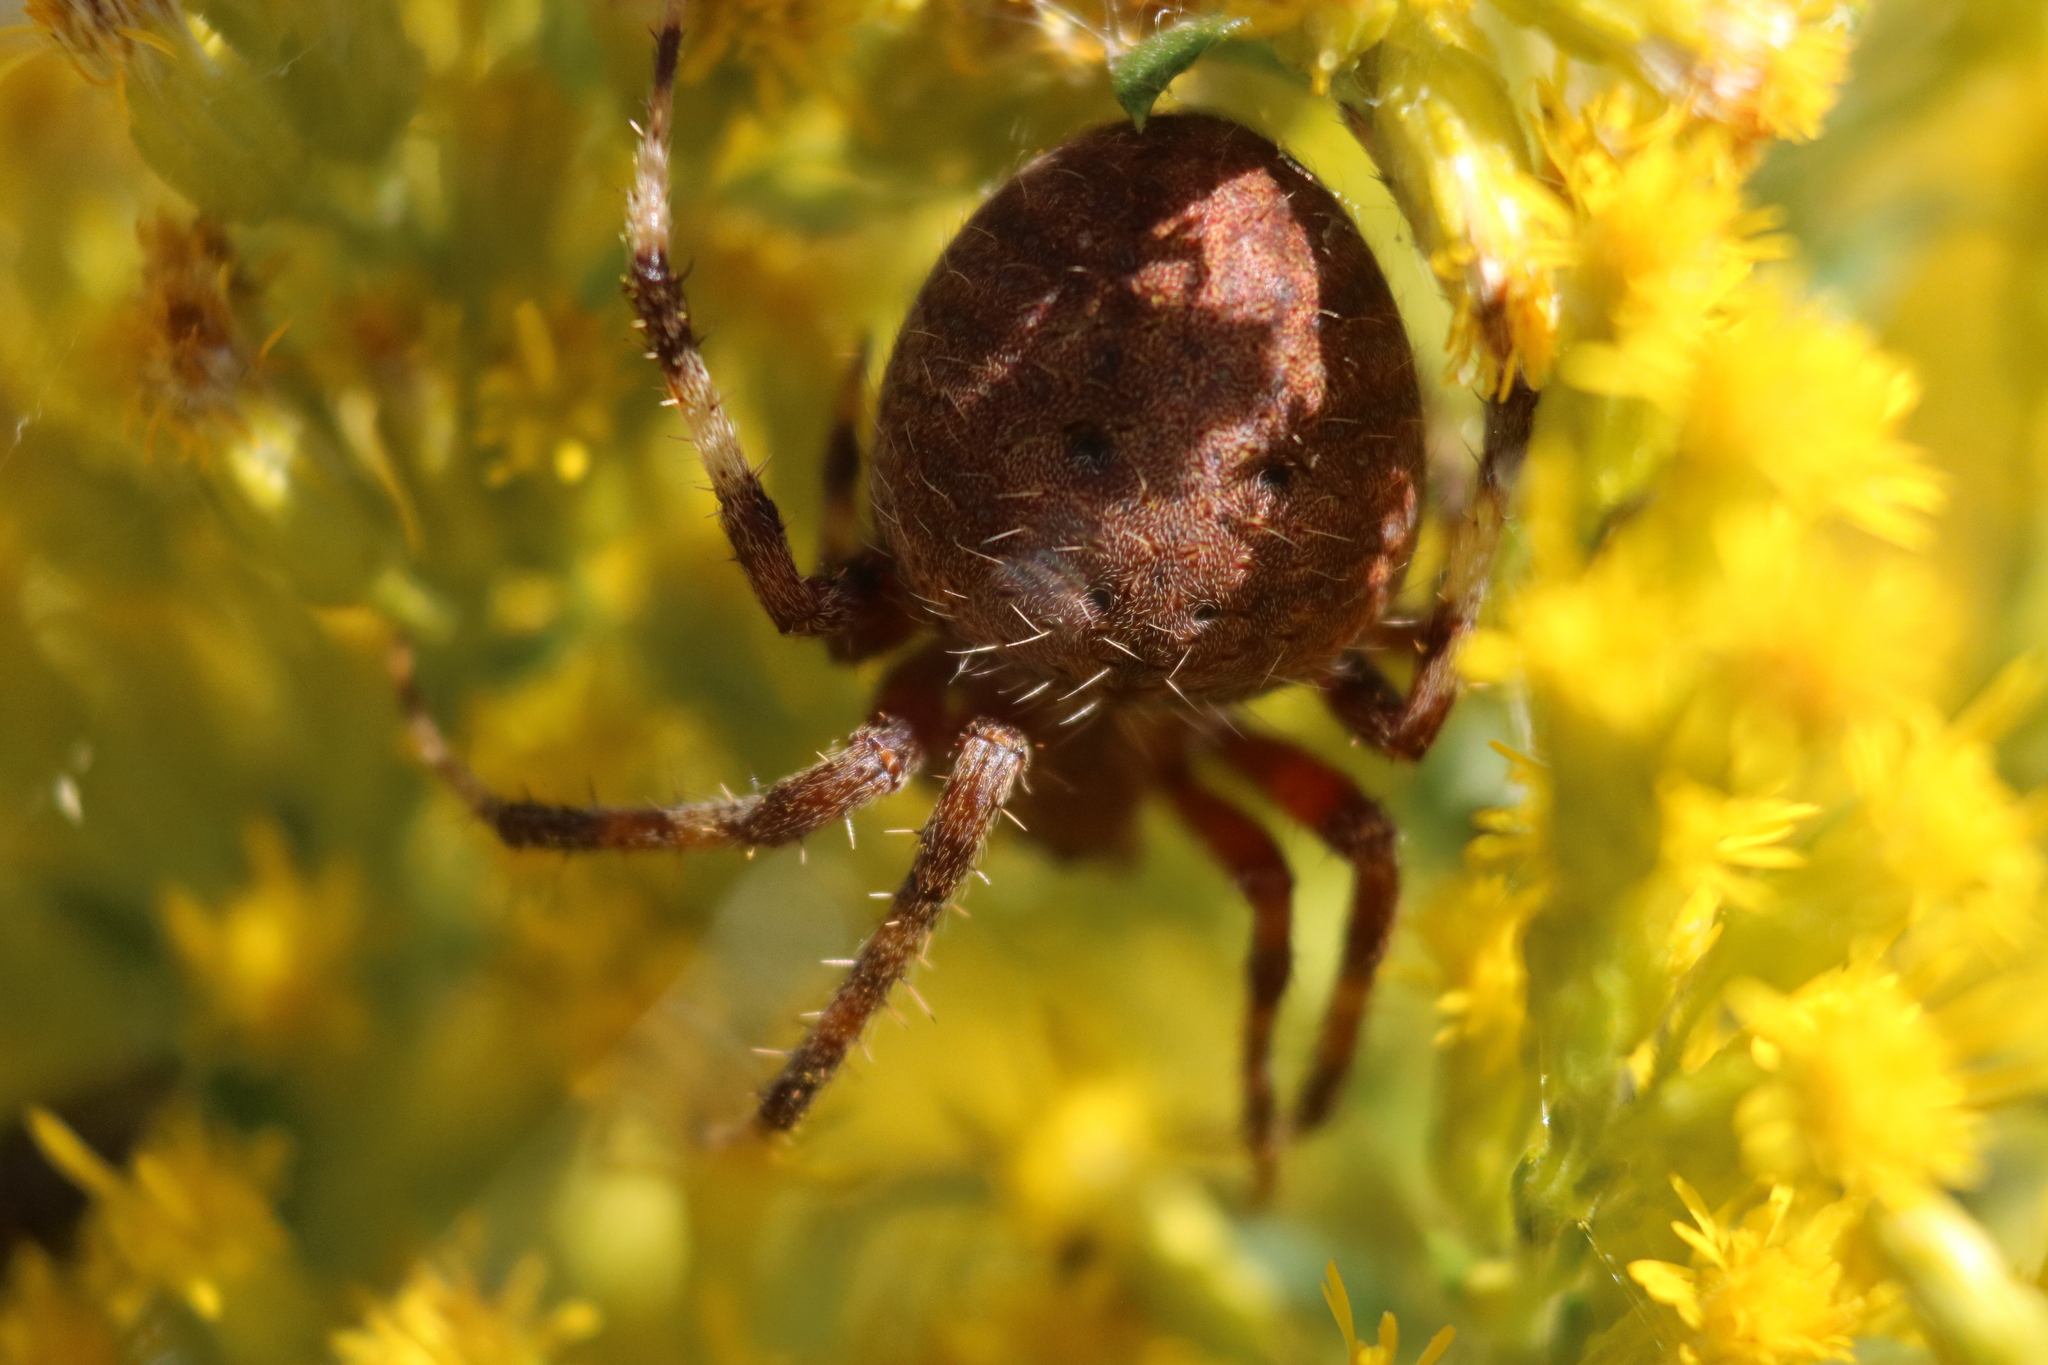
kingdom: Animalia
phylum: Arthropoda
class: Arachnida
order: Araneae
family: Araneidae
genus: Neoscona
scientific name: Neoscona crucifera
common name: Spotted orbweaver
